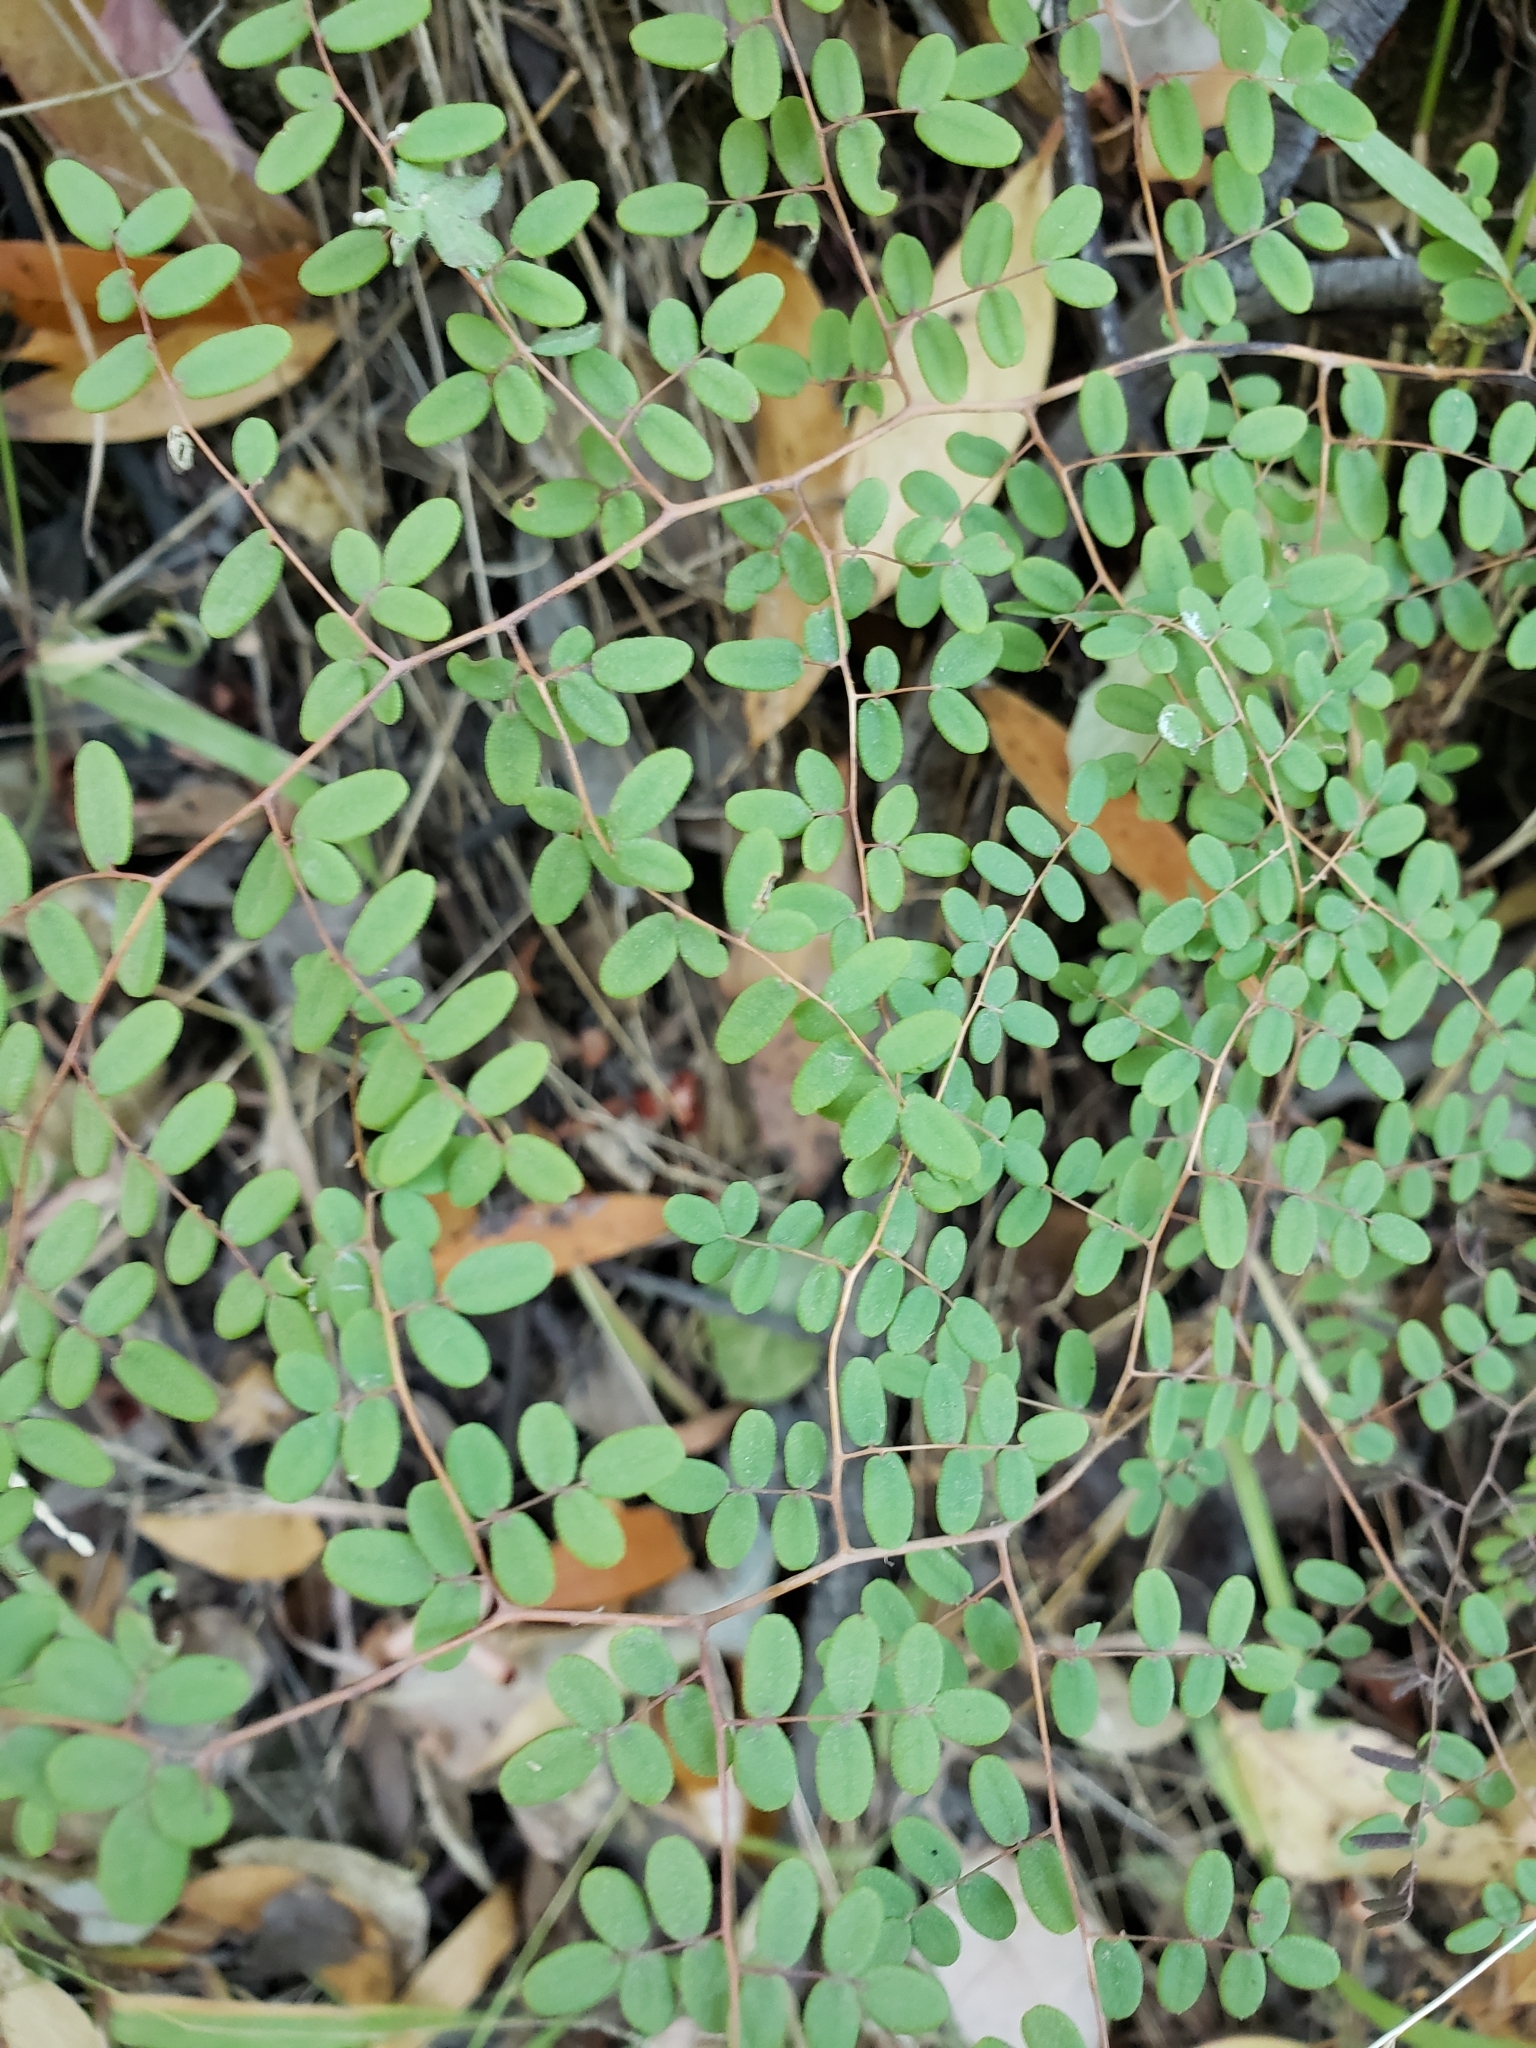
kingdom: Plantae
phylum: Tracheophyta
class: Polypodiopsida
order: Polypodiales
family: Pteridaceae
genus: Pellaea
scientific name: Pellaea andromedifolia
